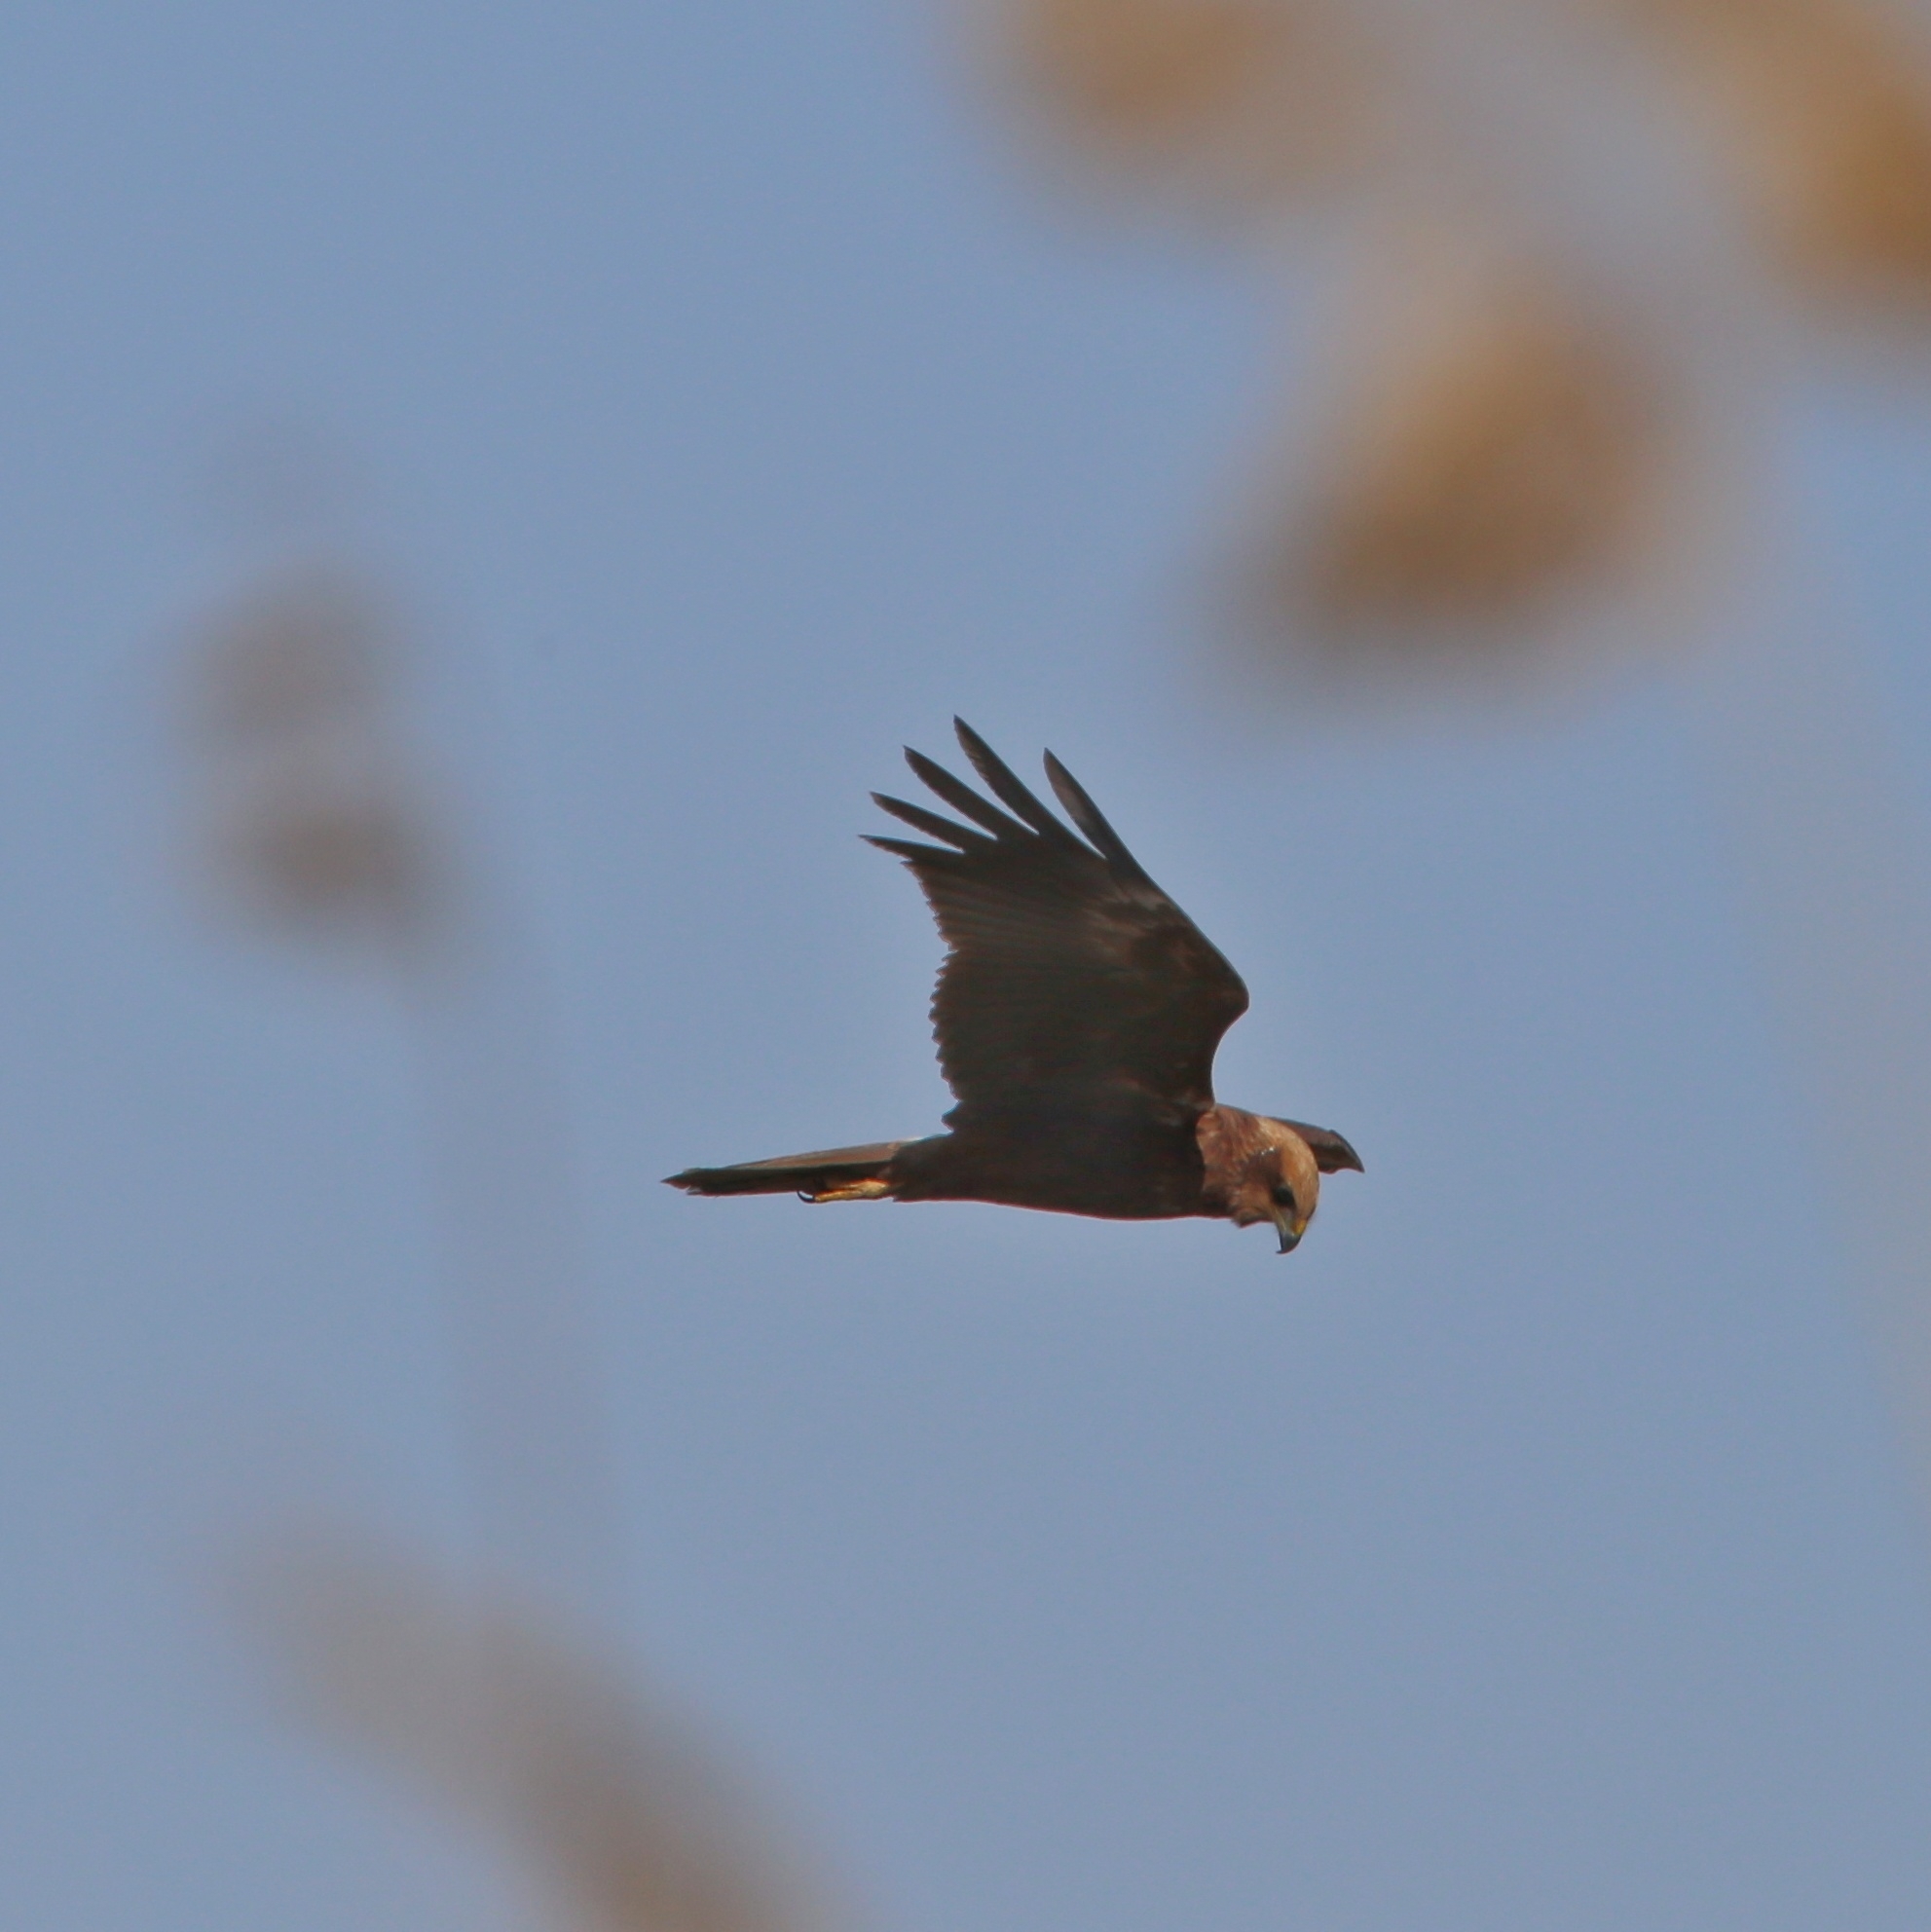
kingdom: Animalia
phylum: Chordata
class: Aves
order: Accipitriformes
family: Accipitridae
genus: Circus
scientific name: Circus aeruginosus
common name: Western marsh harrier
